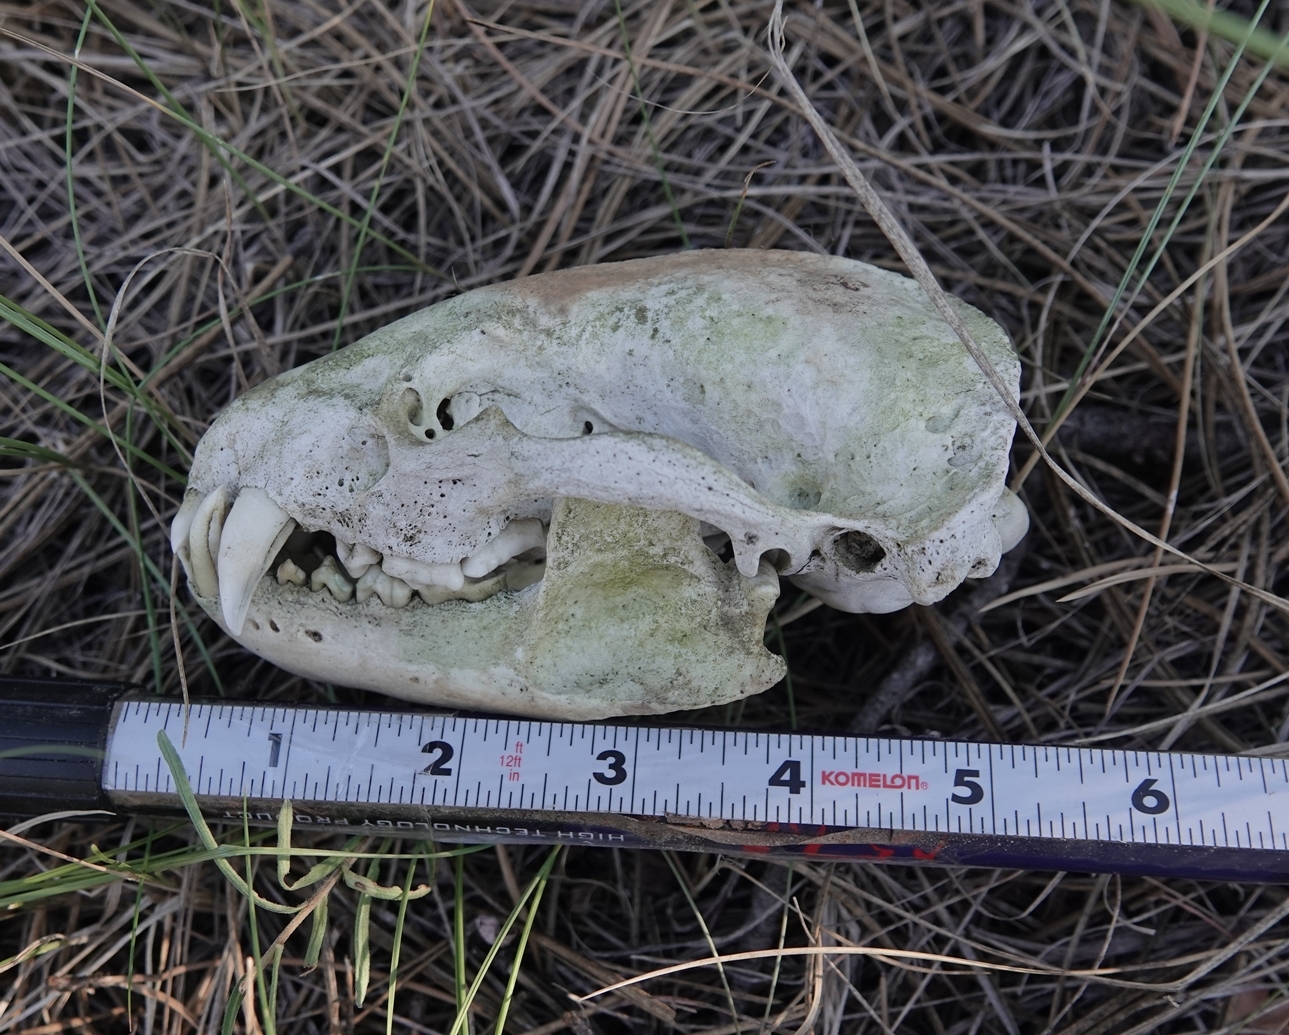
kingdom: Animalia
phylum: Chordata
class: Mammalia
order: Carnivora
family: Mustelidae
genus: Taxidea
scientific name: Taxidea taxus
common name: American badger
